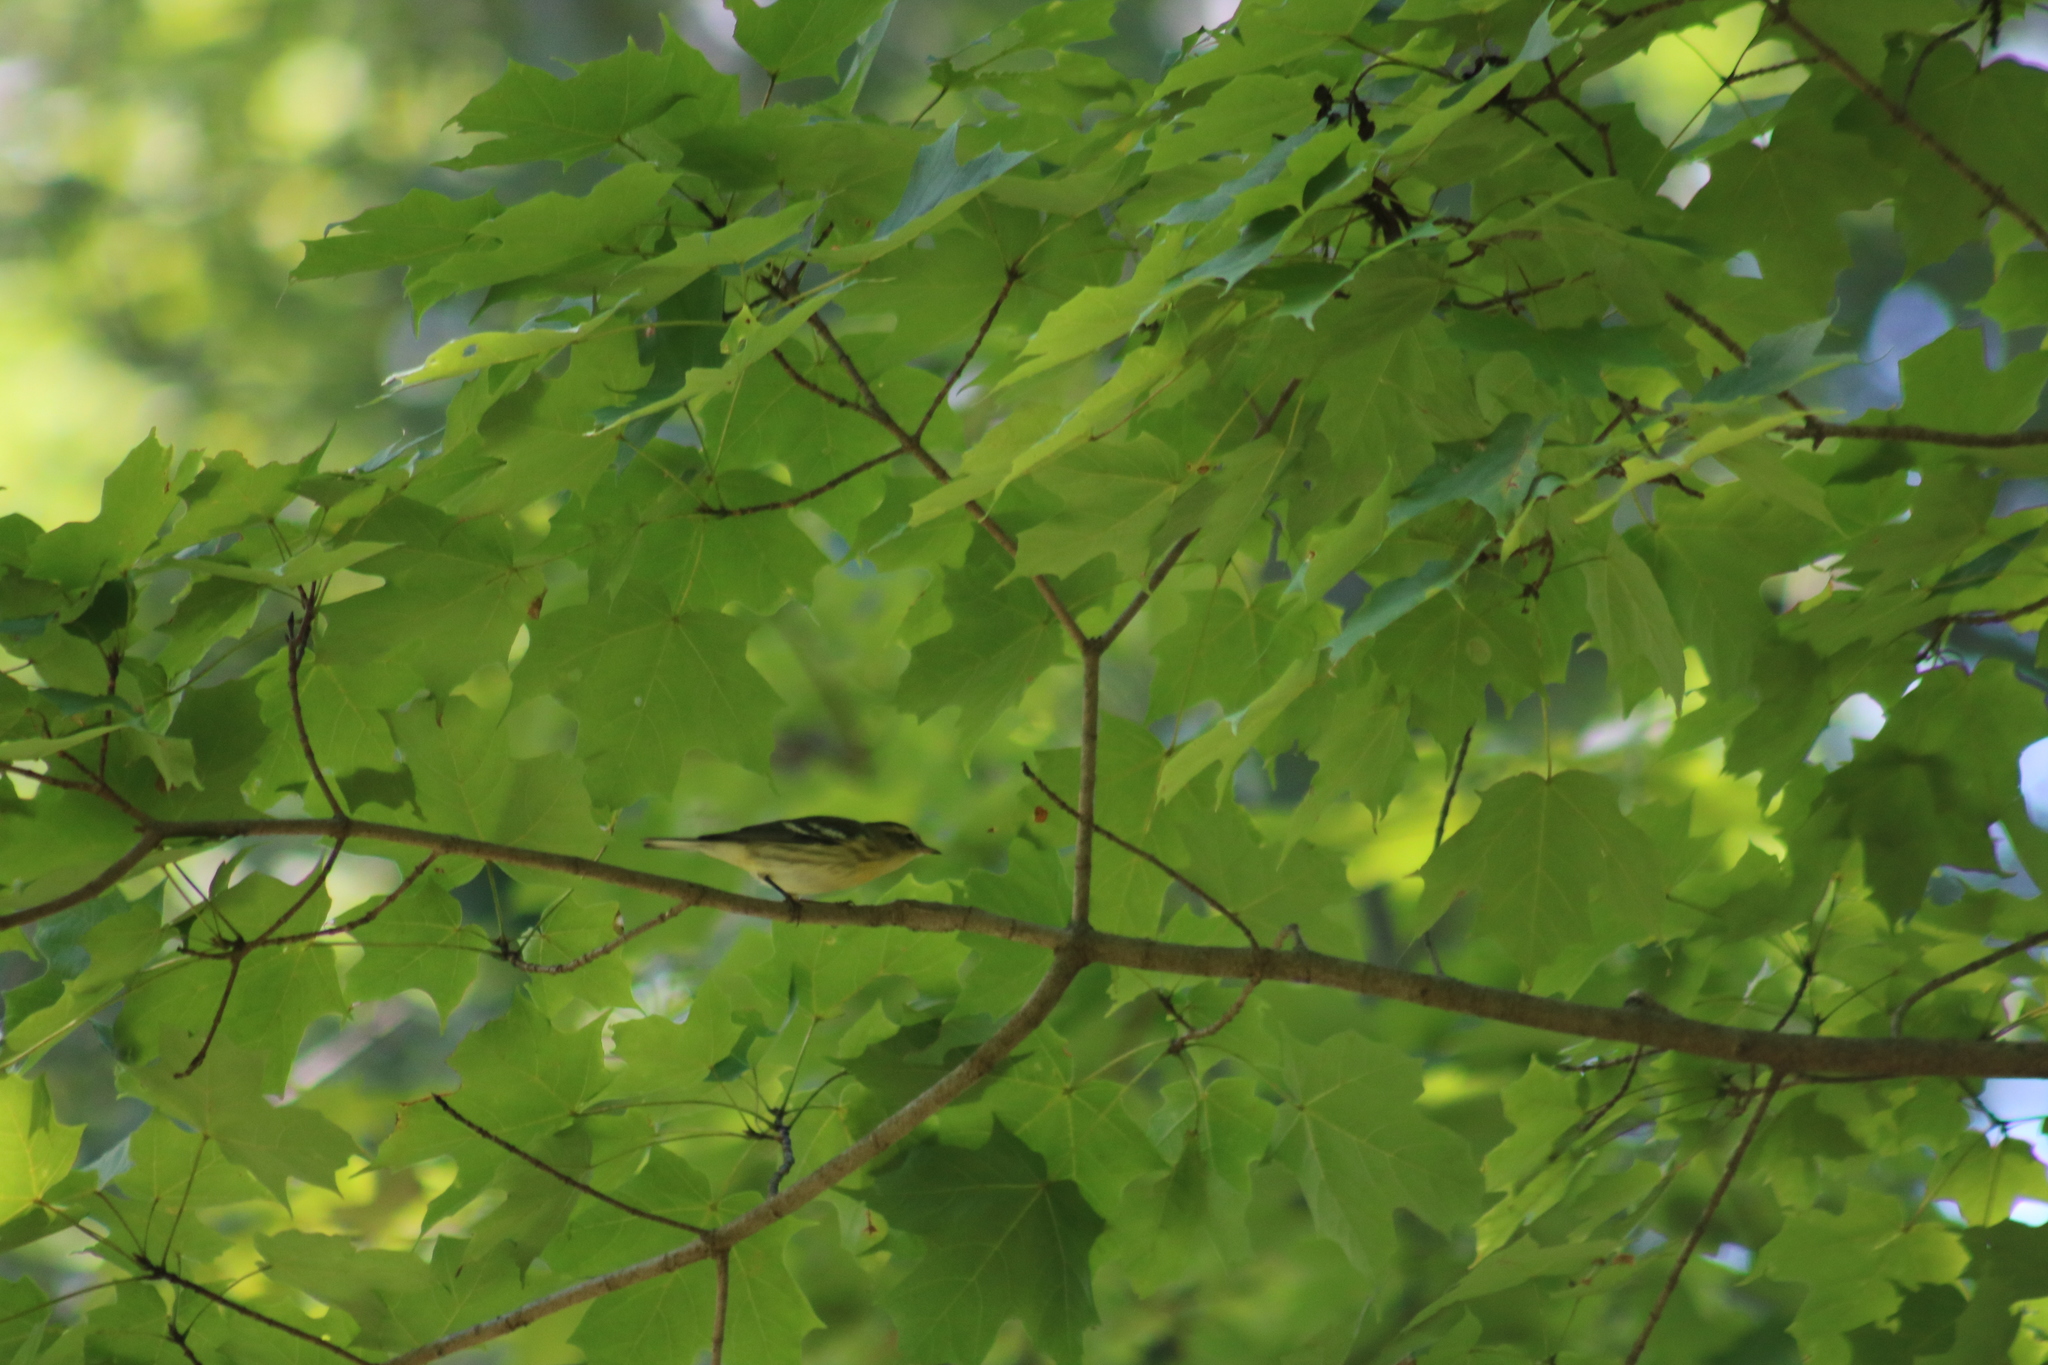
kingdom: Animalia
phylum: Chordata
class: Aves
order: Passeriformes
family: Parulidae
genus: Setophaga
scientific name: Setophaga fusca
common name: Blackburnian warbler
